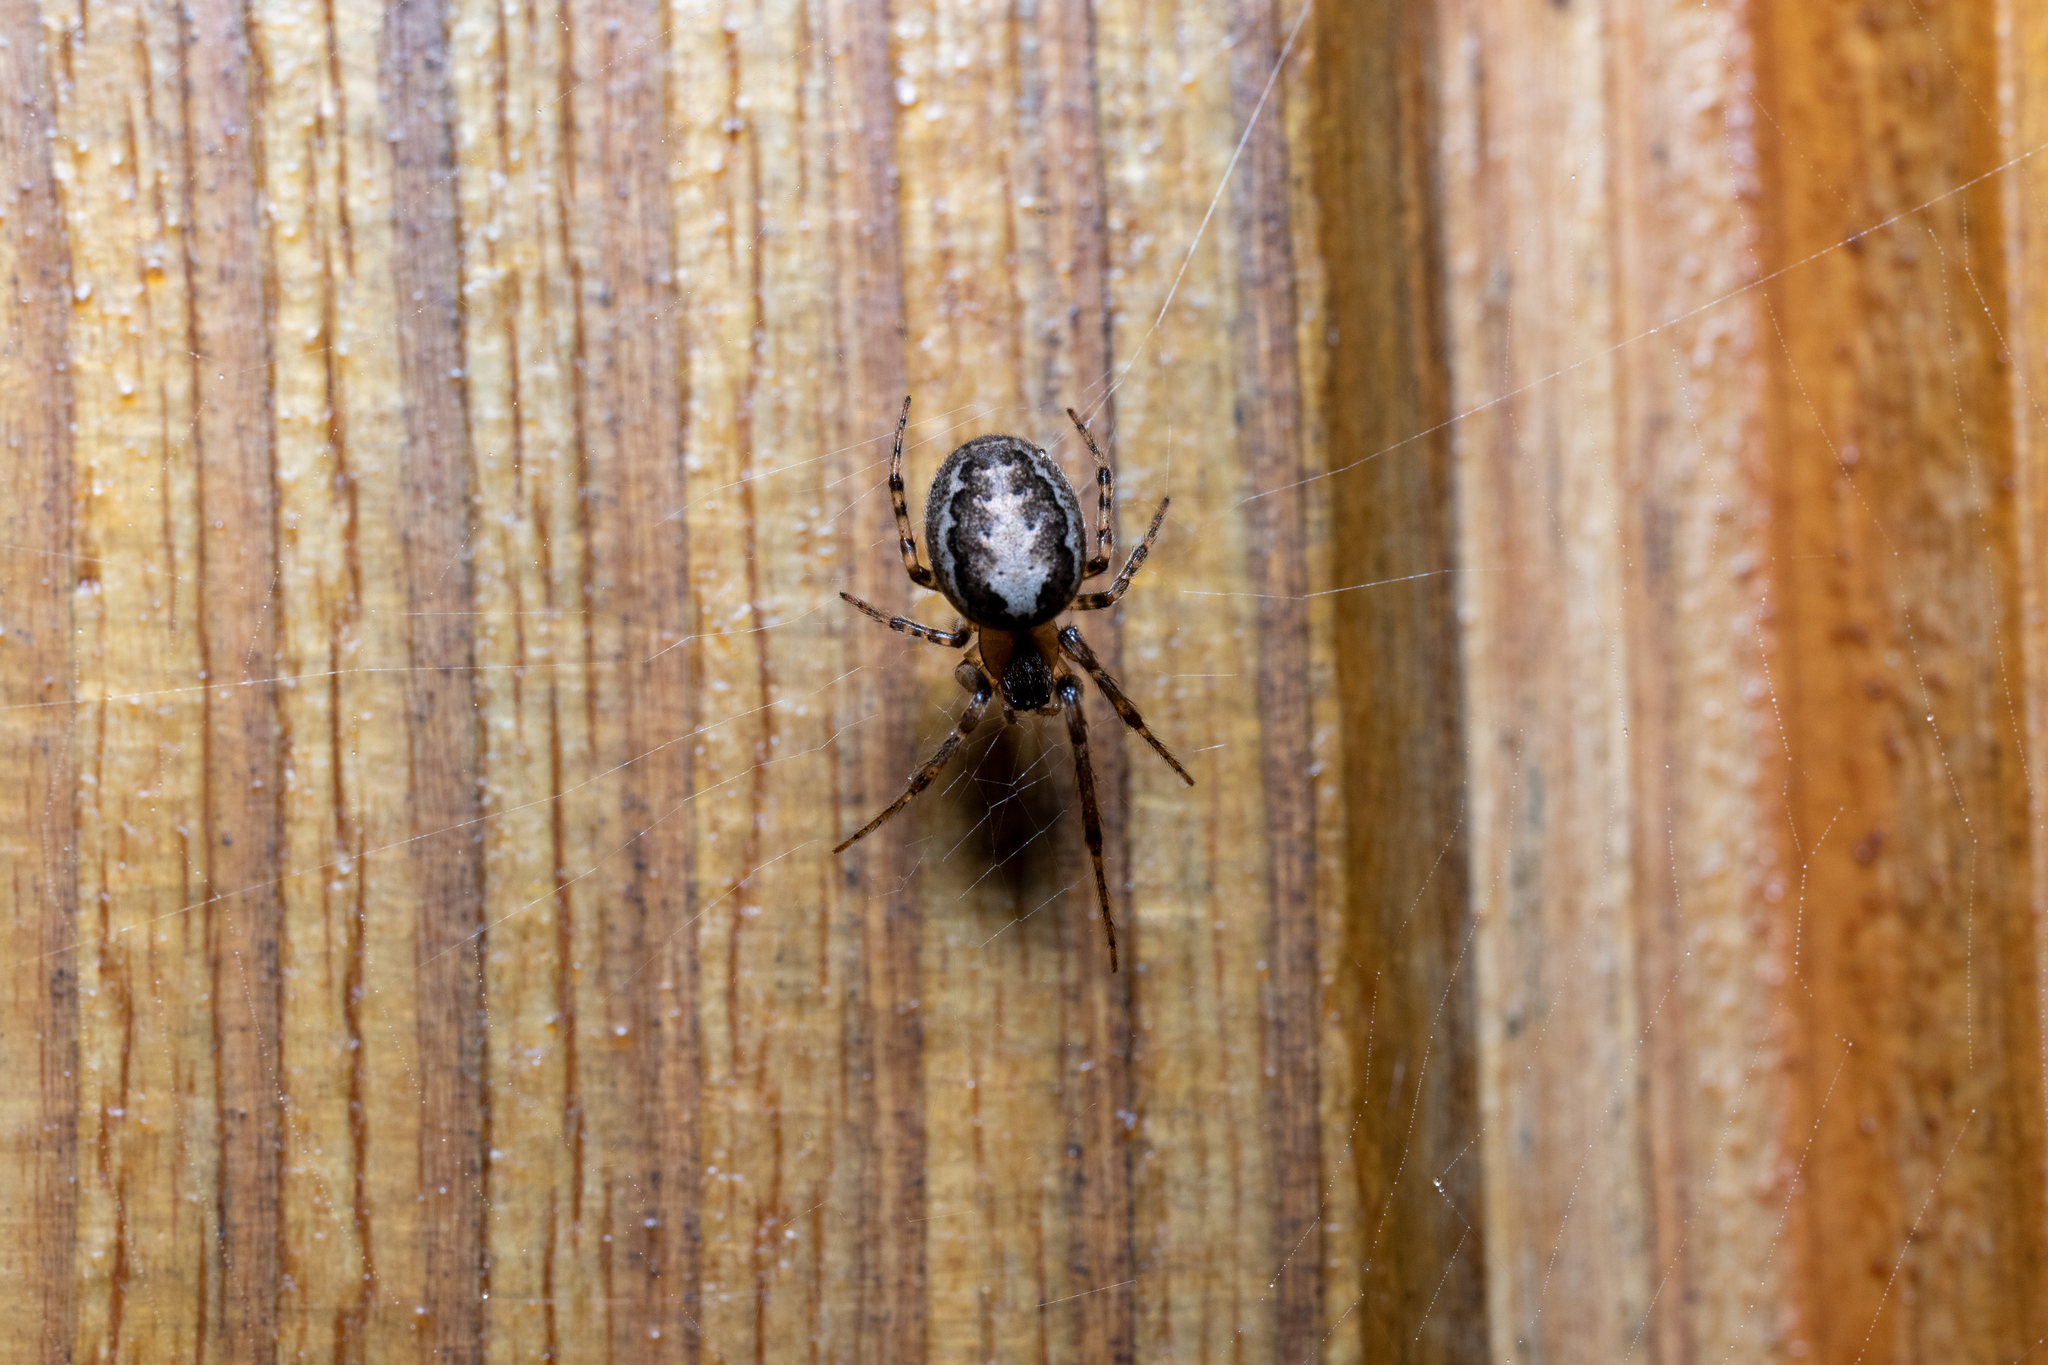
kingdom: Animalia
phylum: Arthropoda
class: Arachnida
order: Araneae
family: Araneidae
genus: Zygiella
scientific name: Zygiella x-notata
